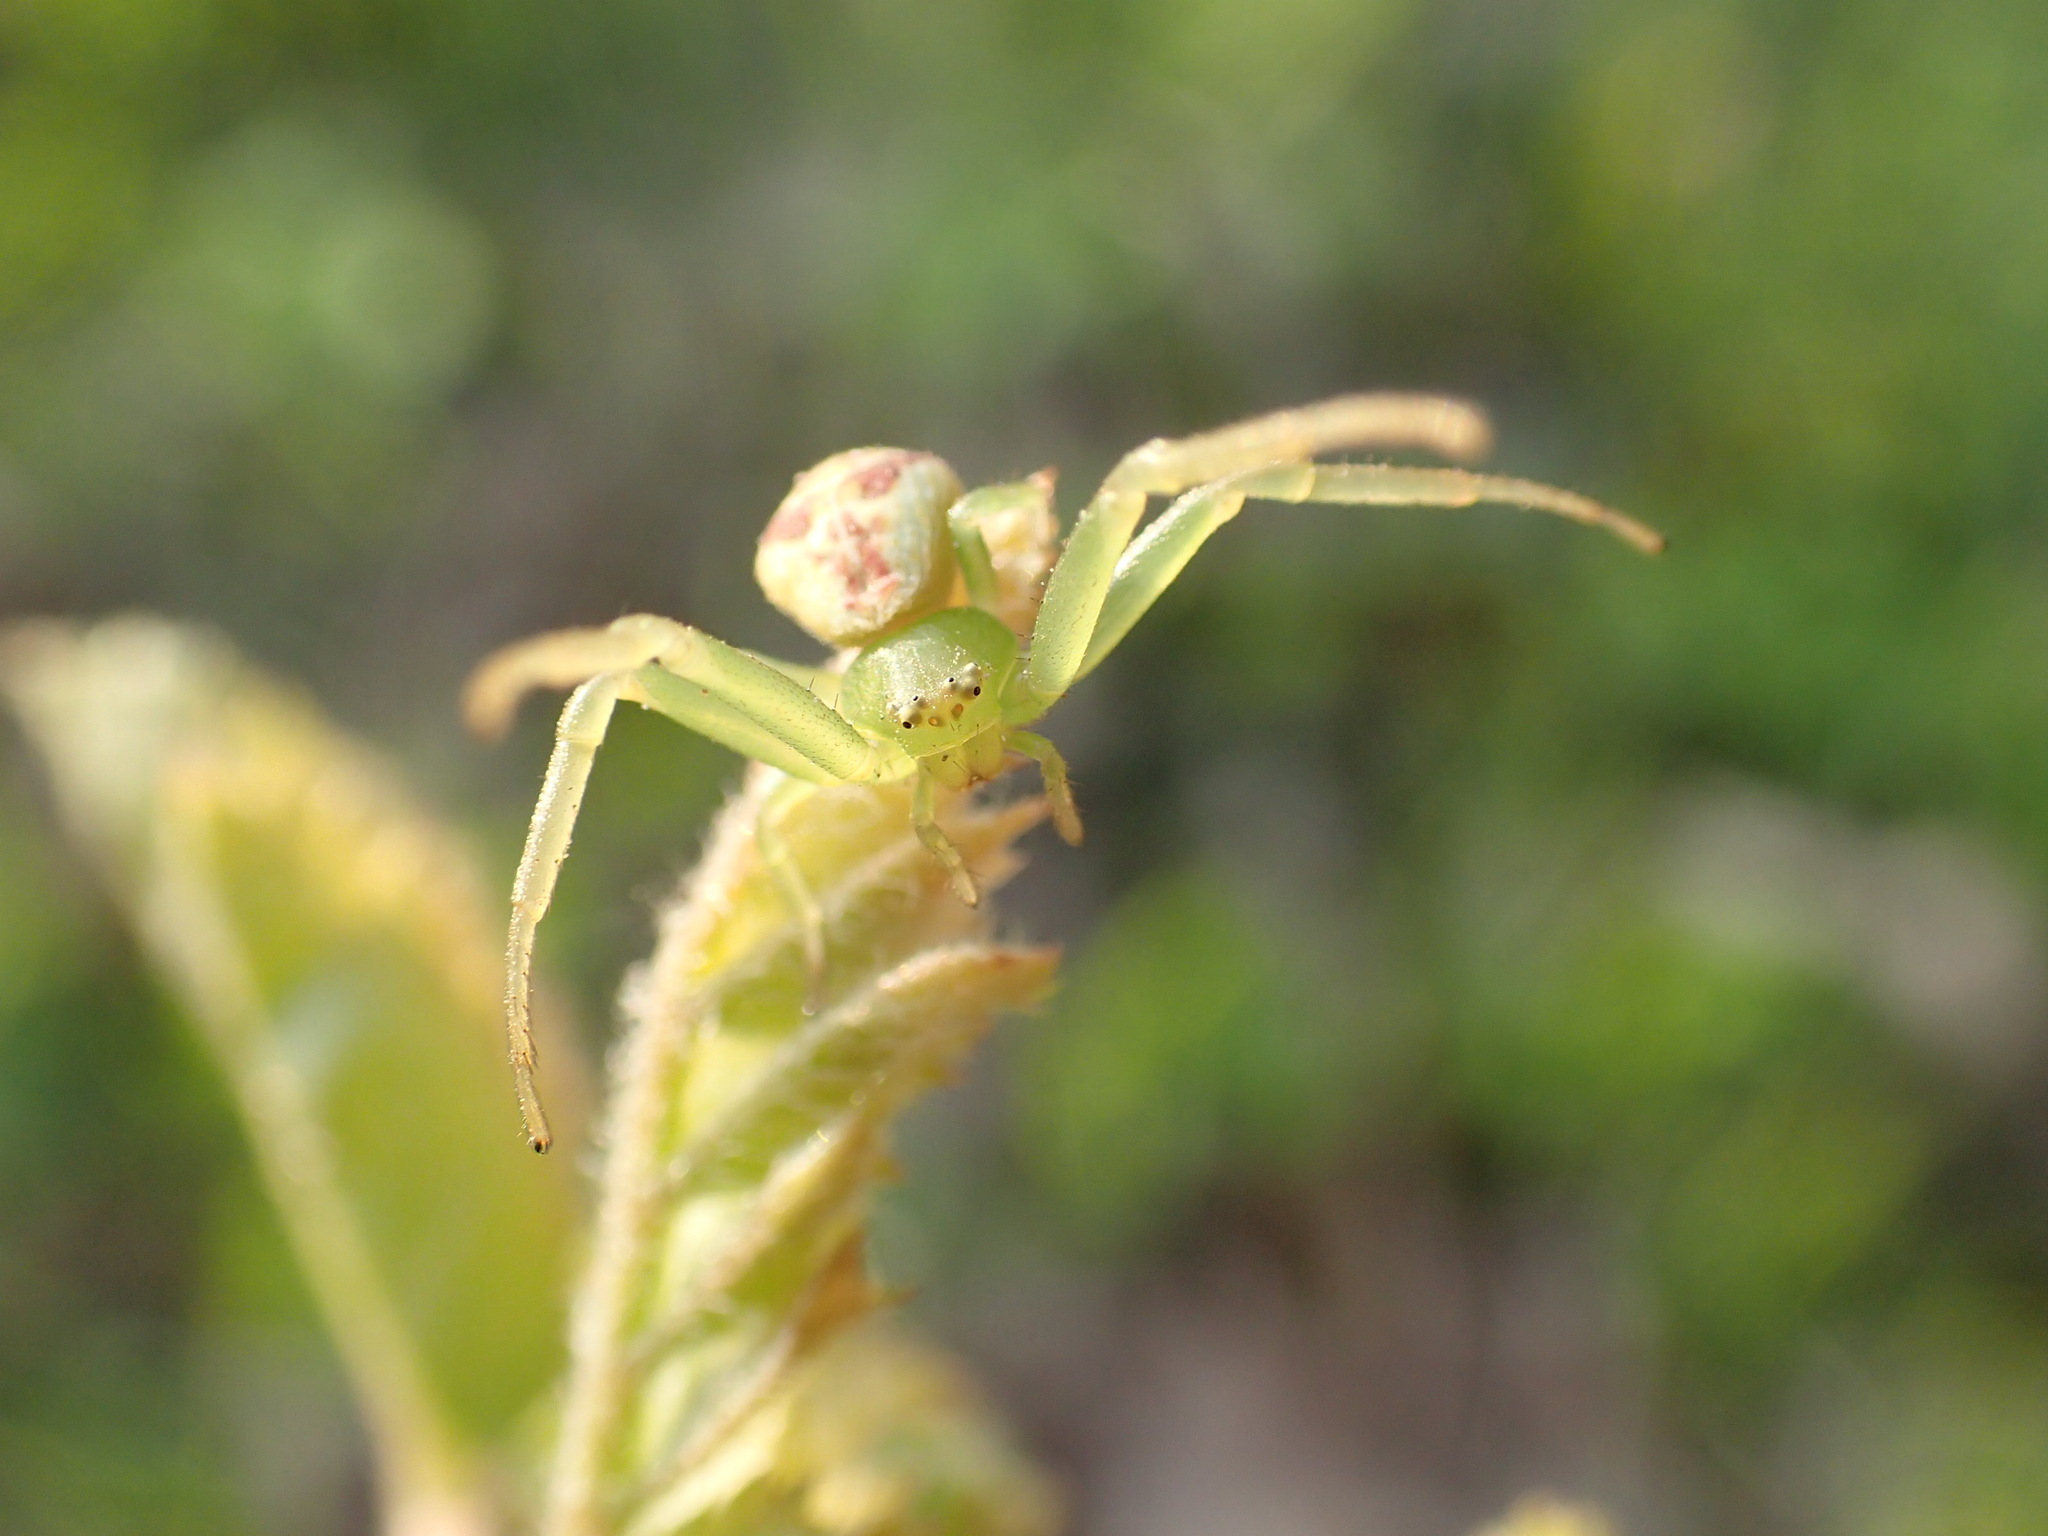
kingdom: Animalia
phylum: Arthropoda
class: Arachnida
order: Araneae
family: Thomisidae
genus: Ebrechtella
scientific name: Ebrechtella tricuspidata
